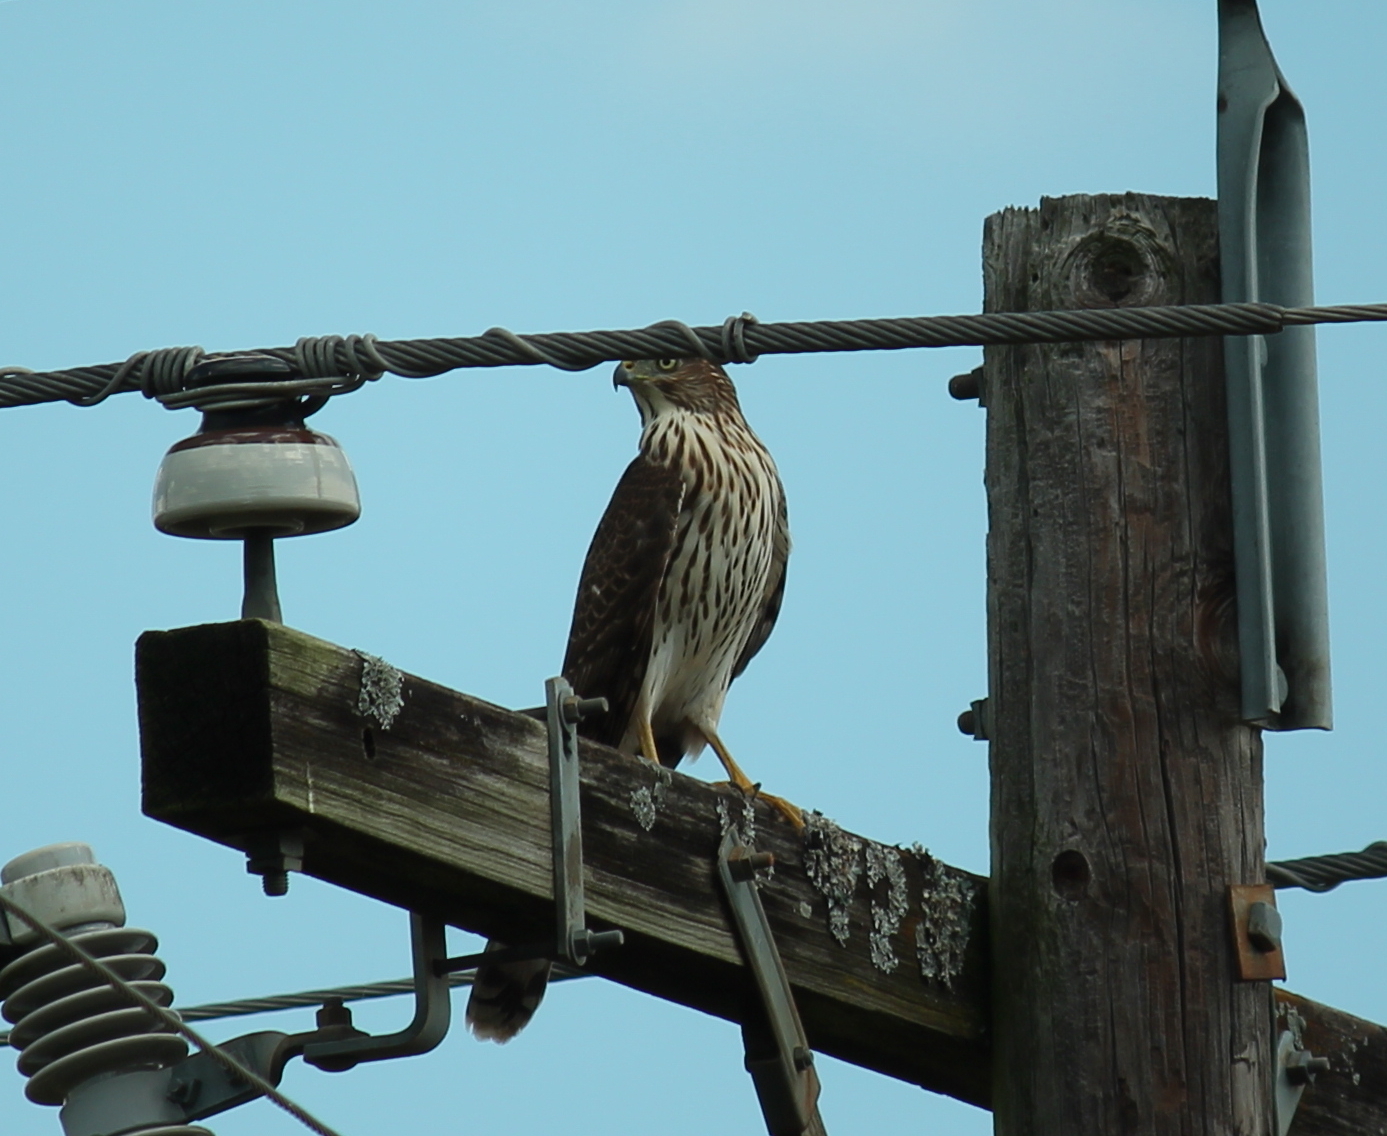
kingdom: Animalia
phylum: Chordata
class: Aves
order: Accipitriformes
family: Accipitridae
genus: Accipiter
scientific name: Accipiter cooperii
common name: Cooper's hawk
